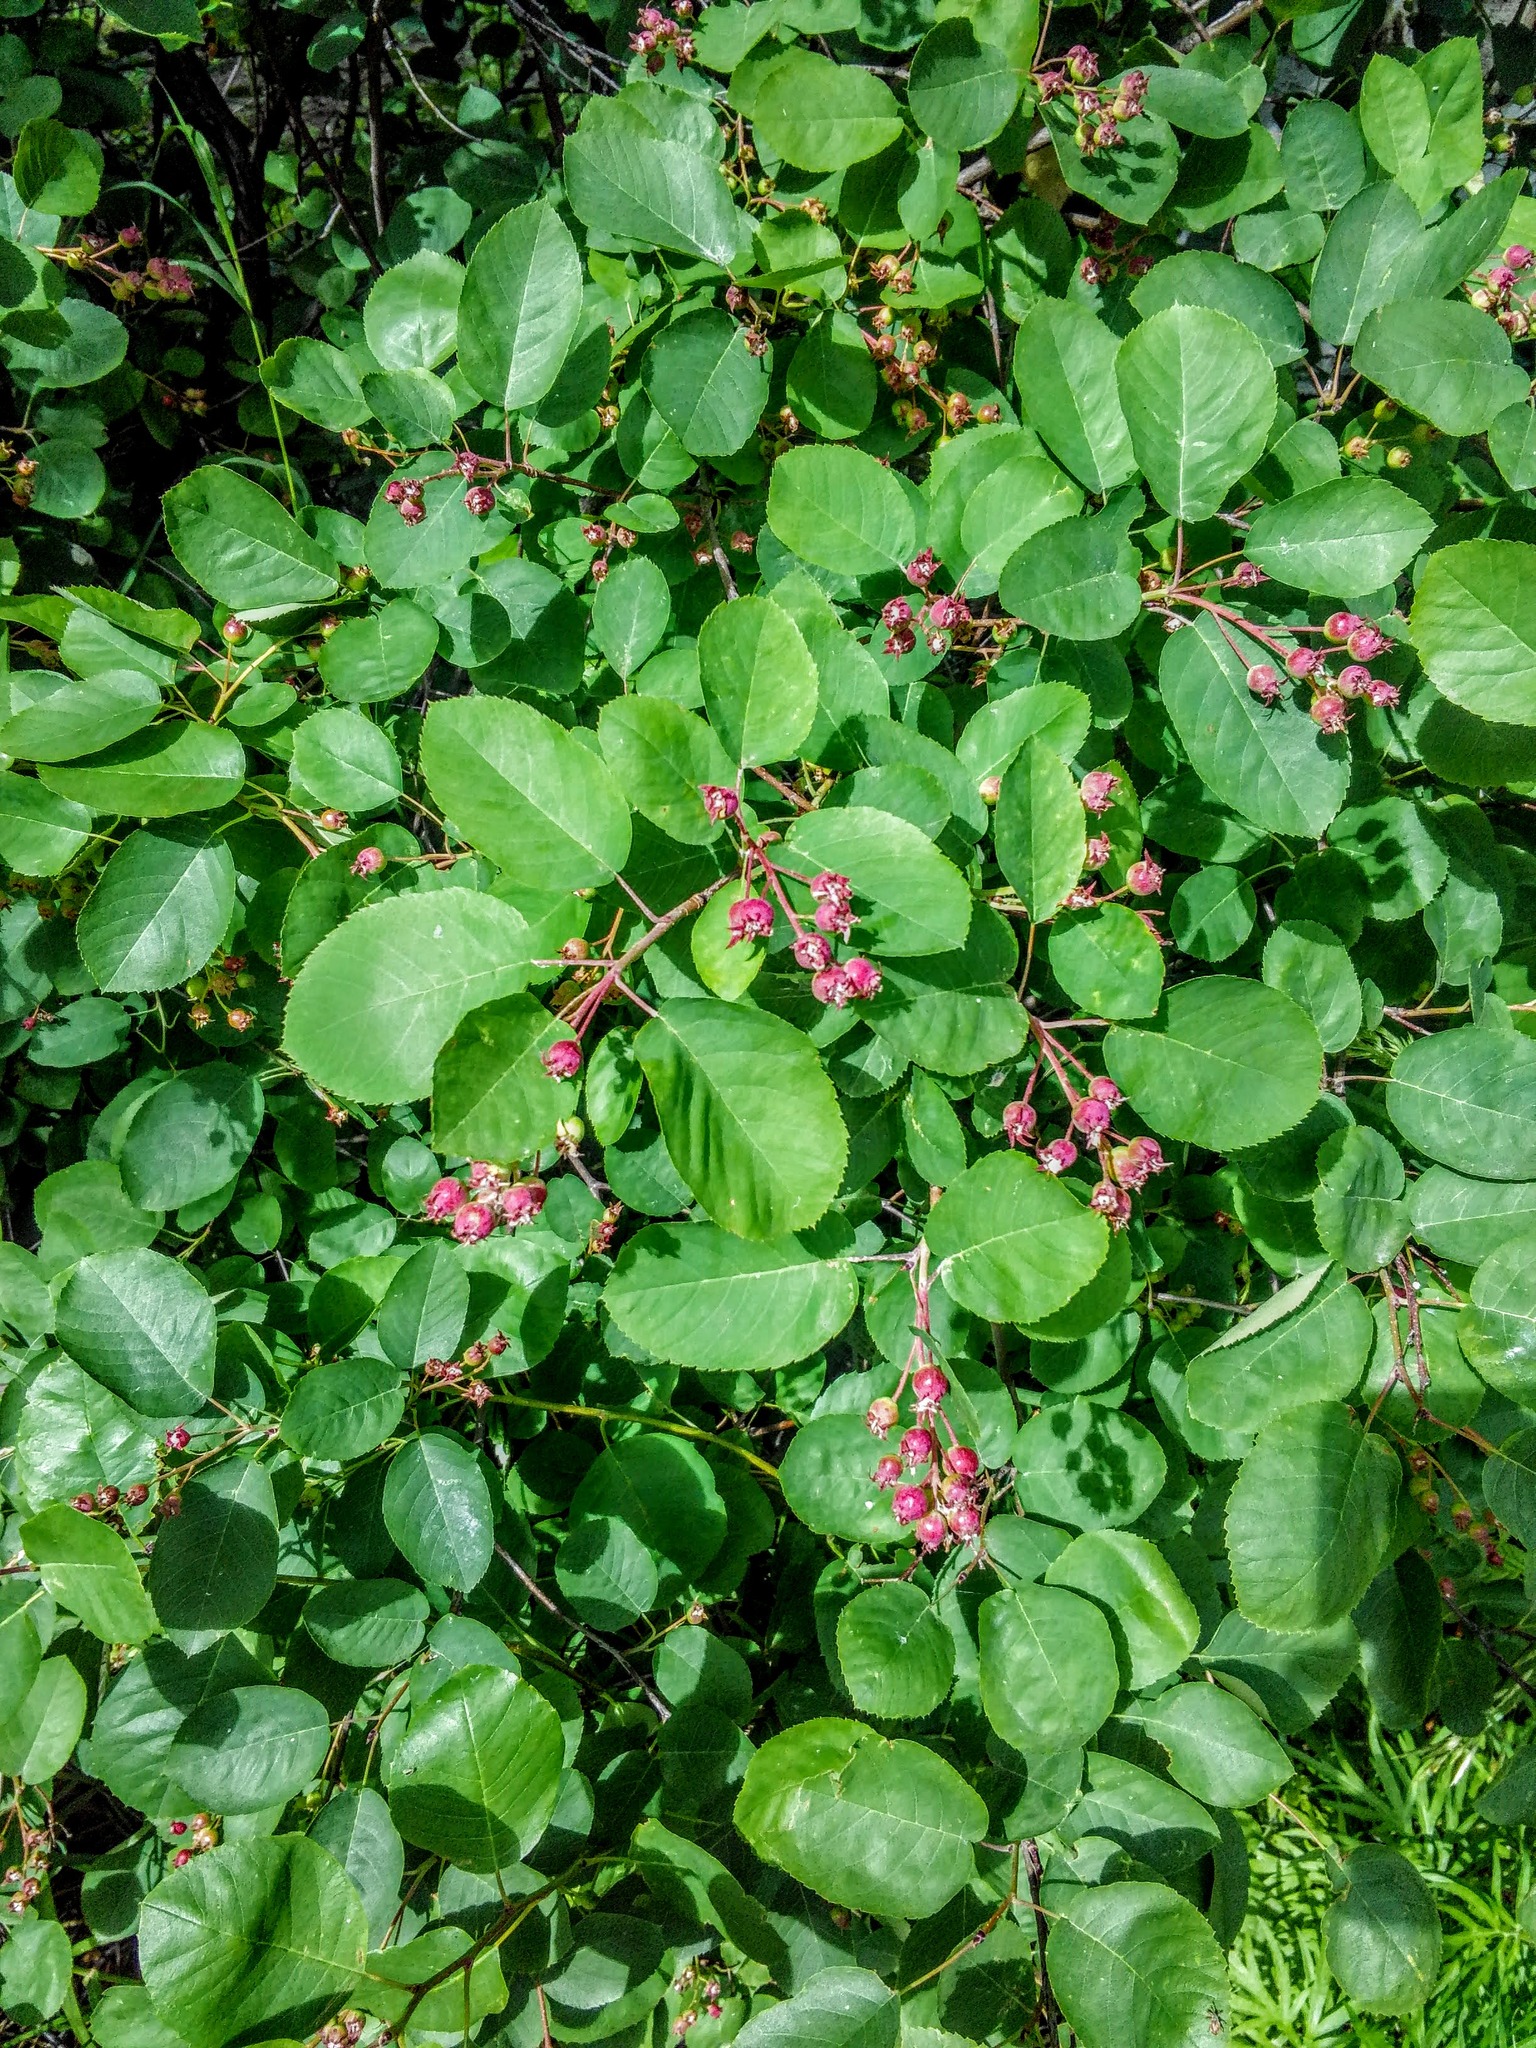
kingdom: Plantae
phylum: Tracheophyta
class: Magnoliopsida
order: Rosales
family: Rosaceae
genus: Amelanchier
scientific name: Amelanchier
